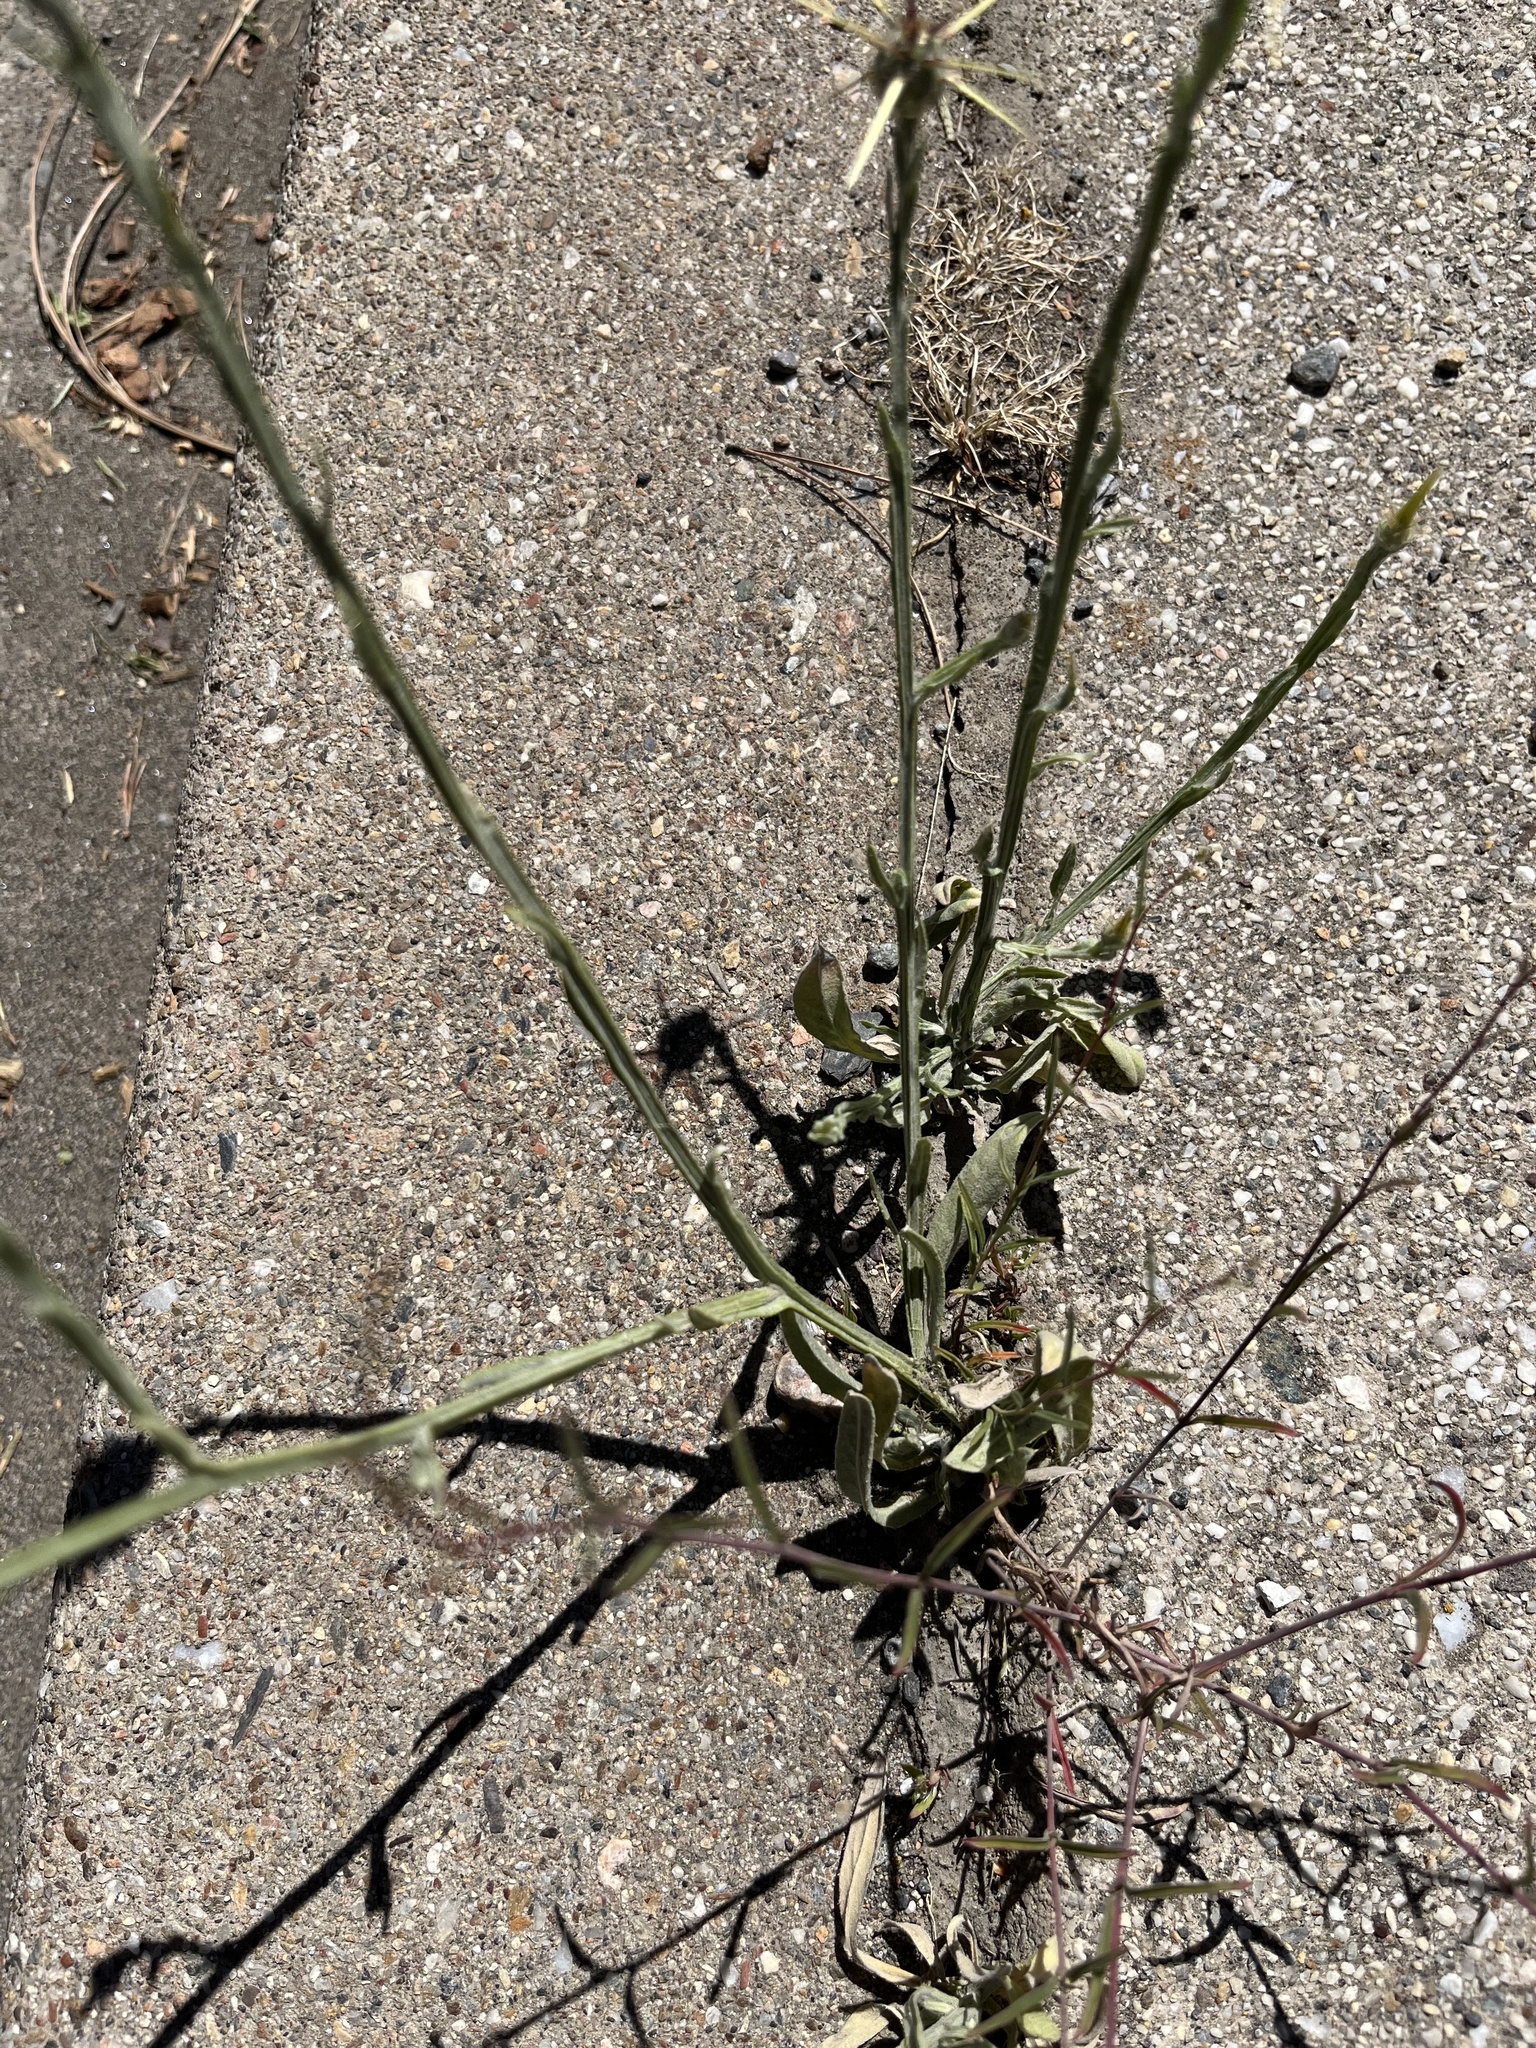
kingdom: Plantae
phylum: Tracheophyta
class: Magnoliopsida
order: Asterales
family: Asteraceae
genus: Centaurea
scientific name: Centaurea solstitialis
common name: Yellow star-thistle
